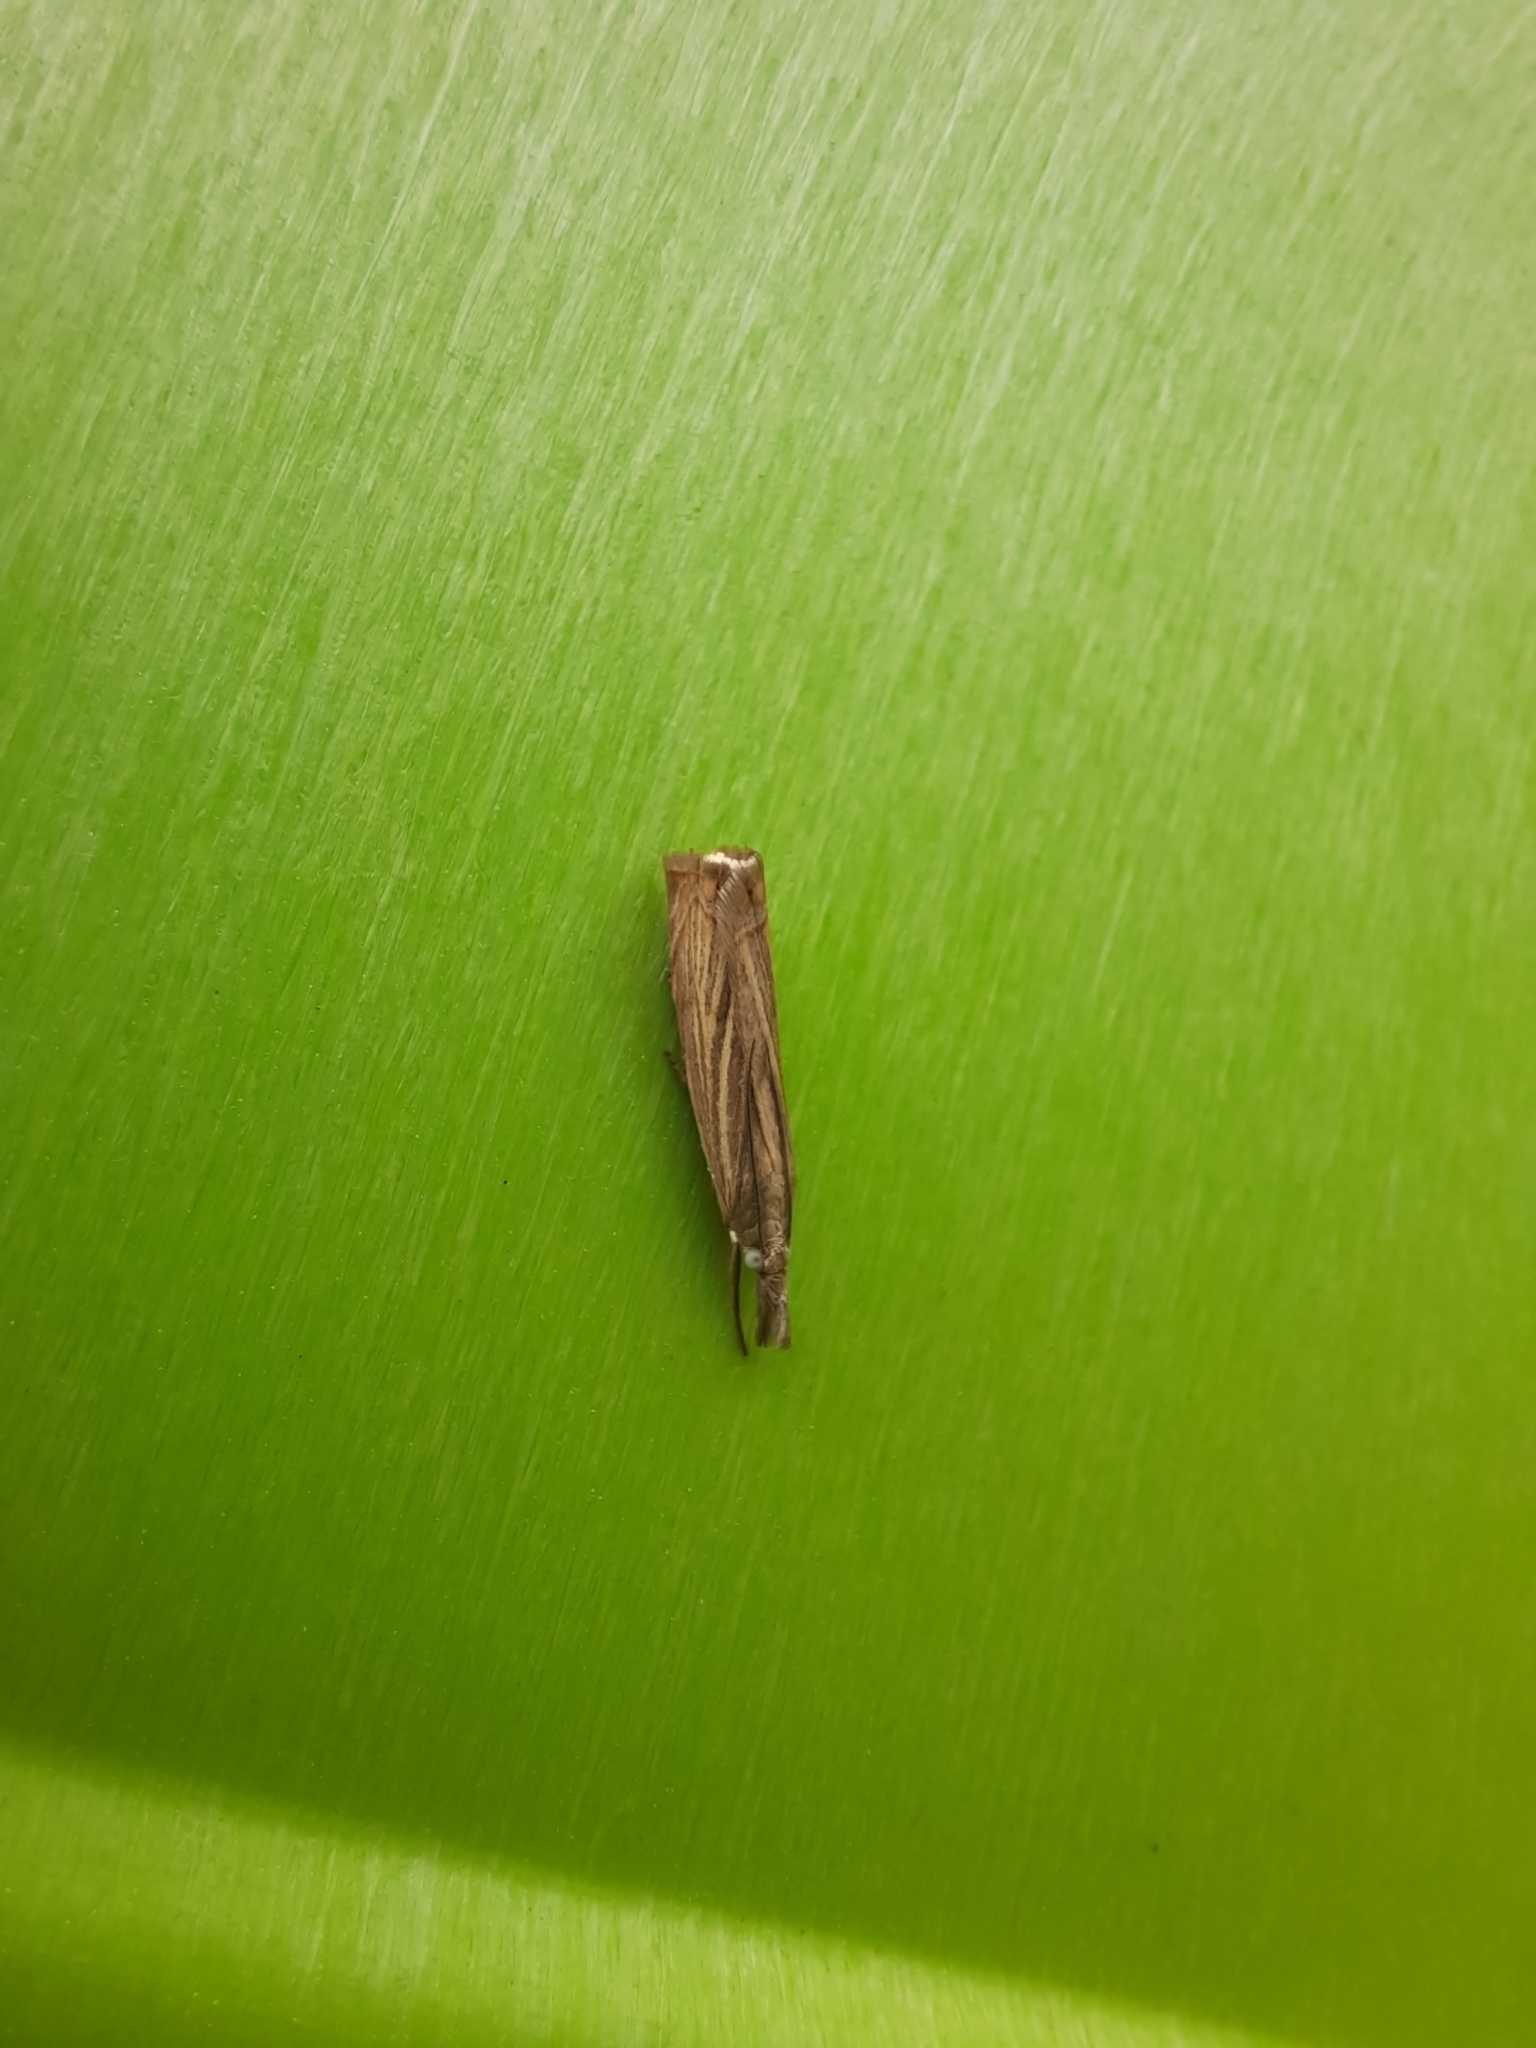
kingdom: Animalia
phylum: Arthropoda
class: Insecta
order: Lepidoptera
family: Crambidae
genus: Chrysoteuchia
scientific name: Chrysoteuchia culmella
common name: Garden grass-veneer
